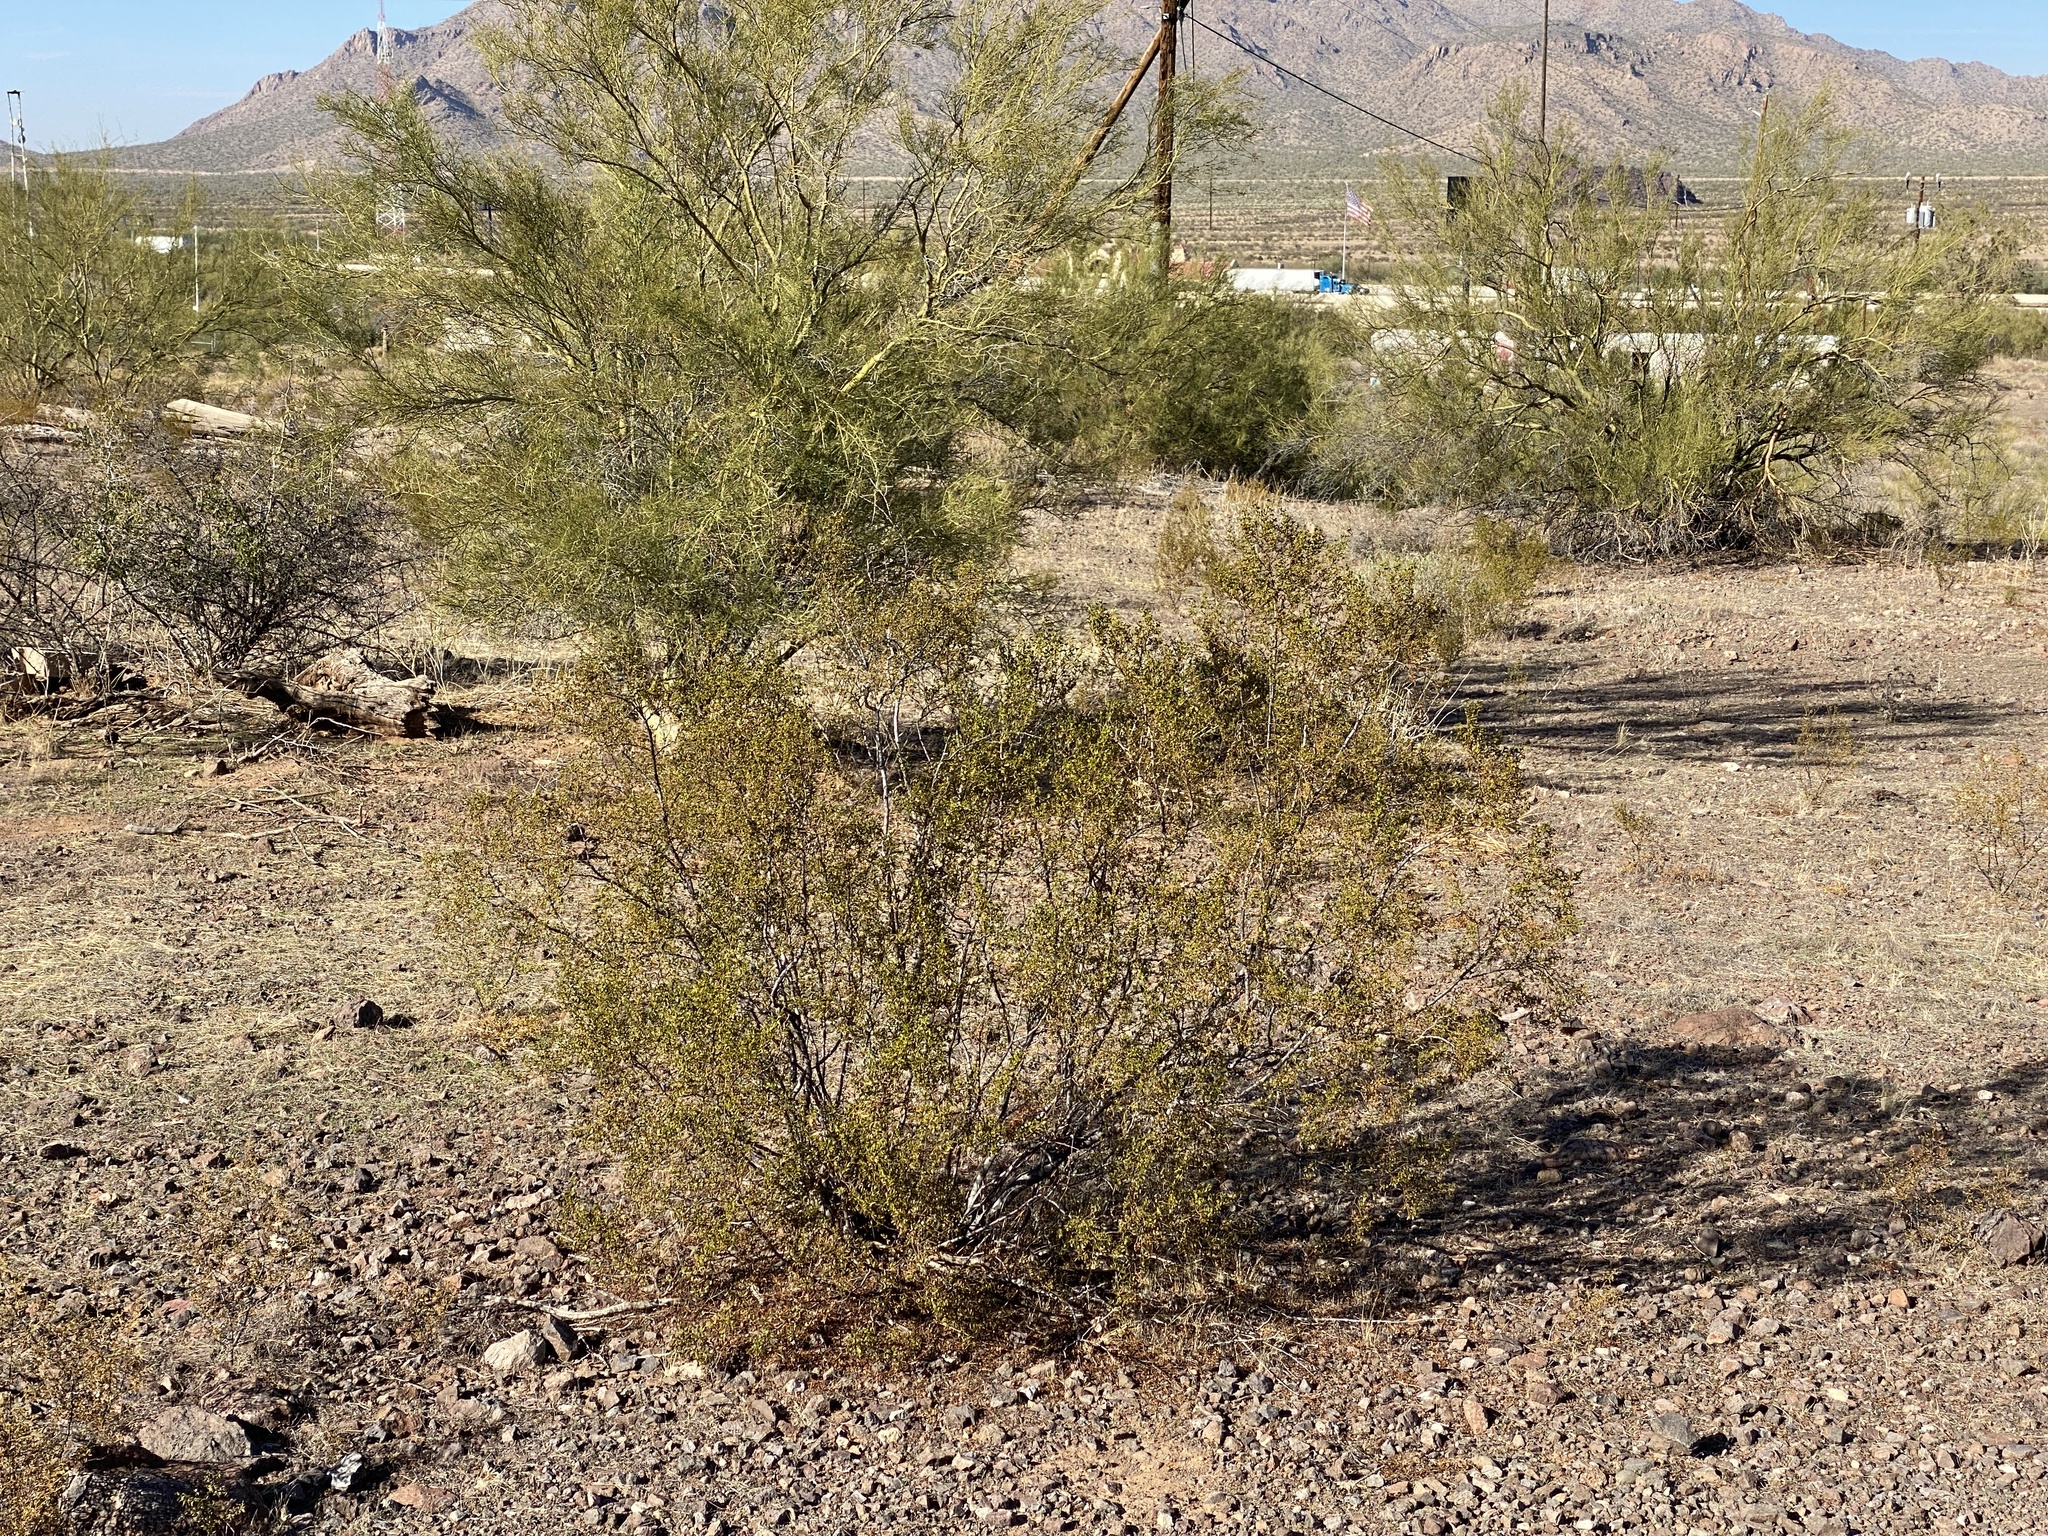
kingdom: Plantae
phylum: Tracheophyta
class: Magnoliopsida
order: Zygophyllales
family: Zygophyllaceae
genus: Larrea
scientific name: Larrea tridentata
